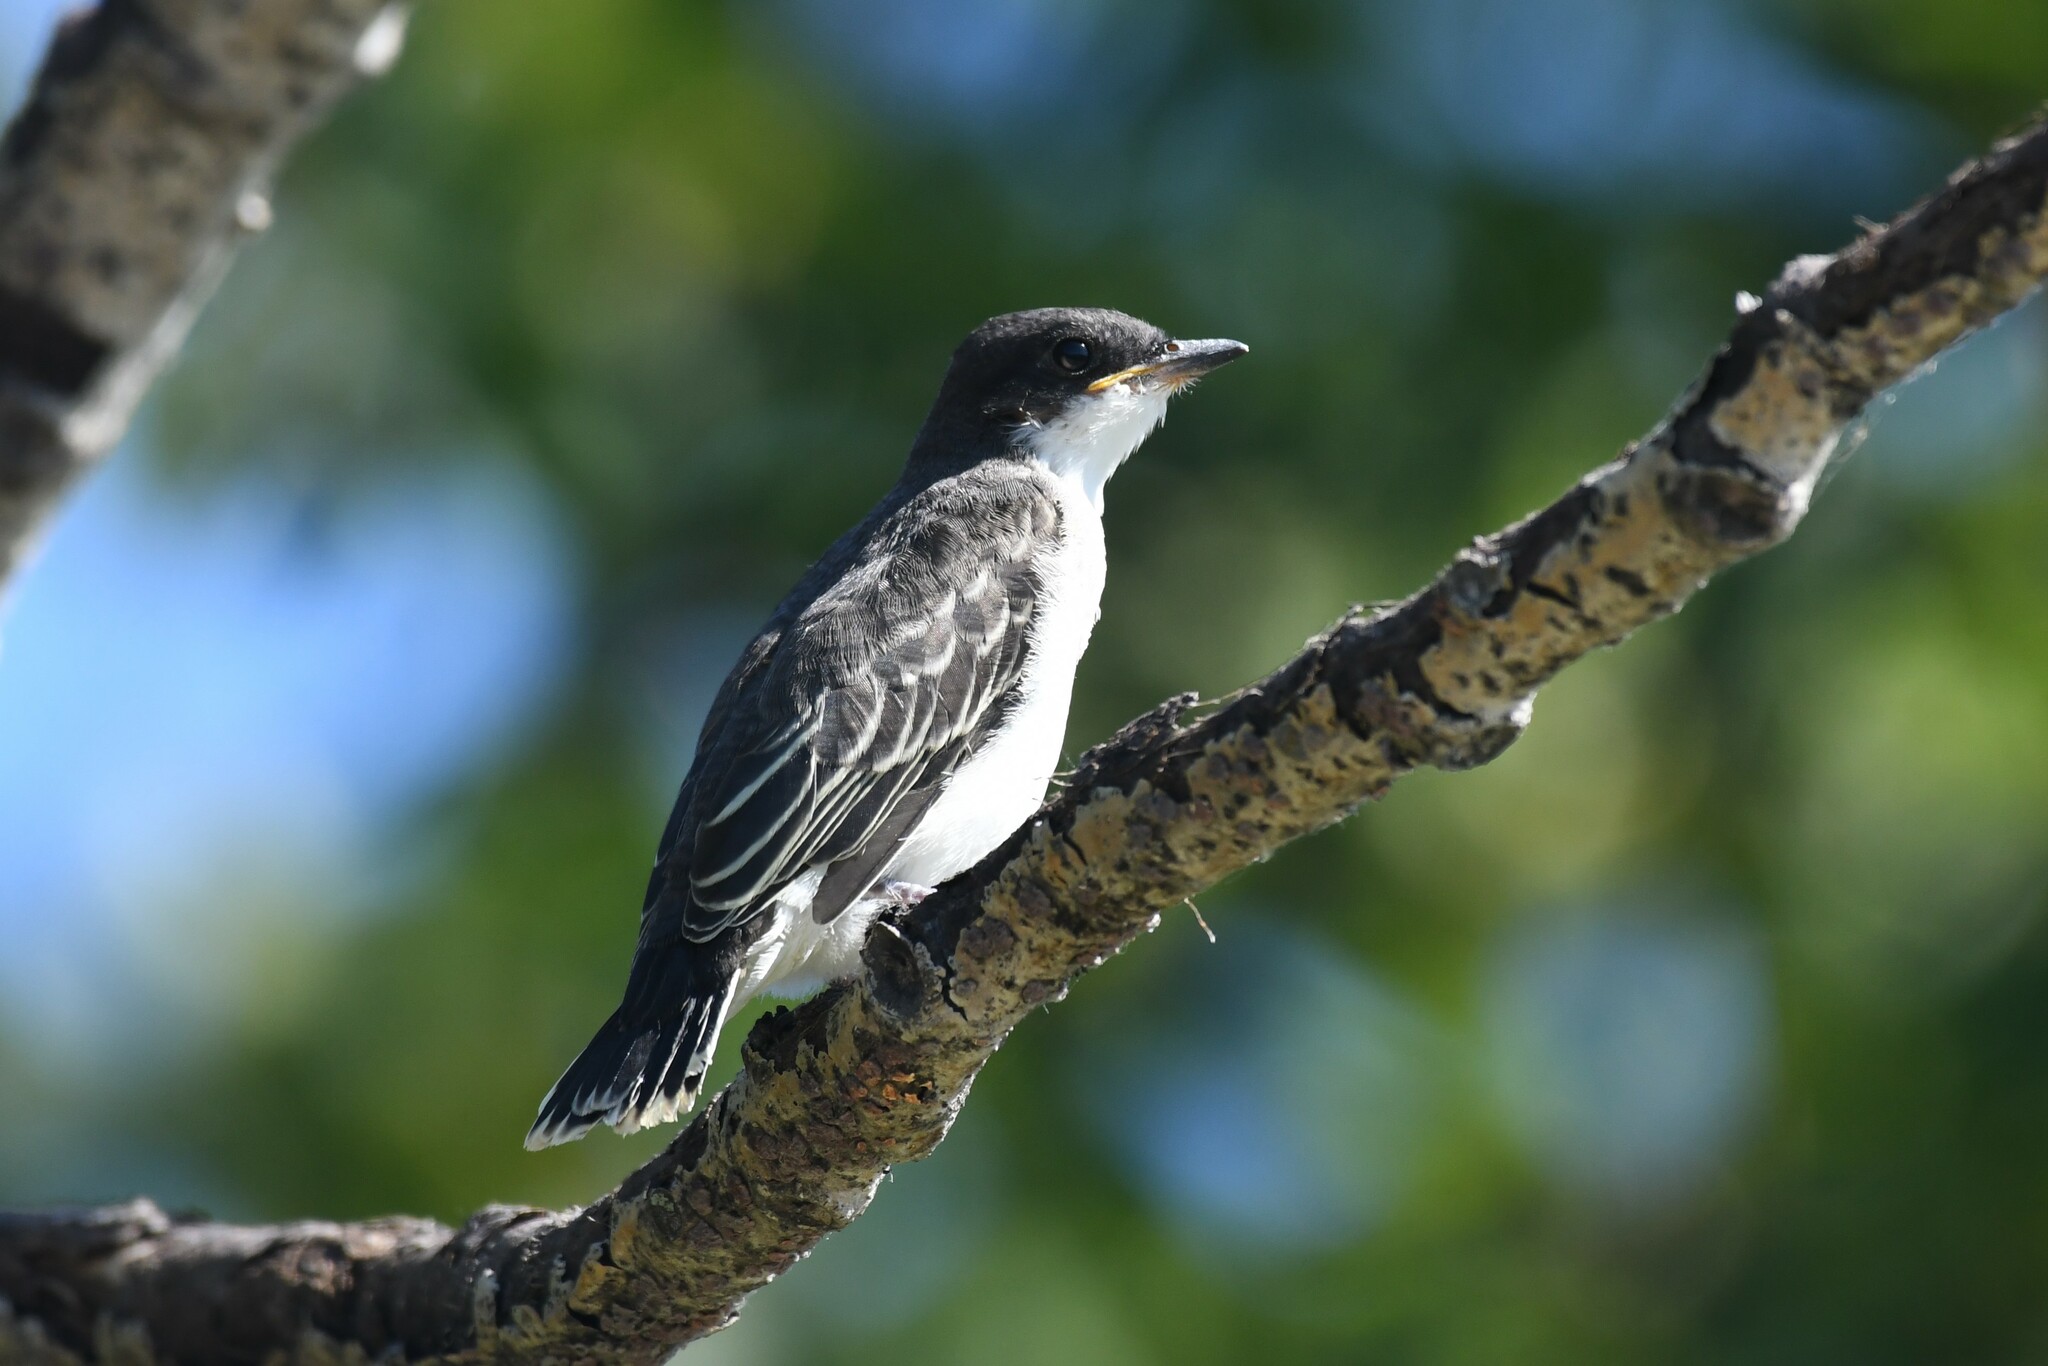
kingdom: Animalia
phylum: Chordata
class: Aves
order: Passeriformes
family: Tyrannidae
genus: Tyrannus
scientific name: Tyrannus tyrannus
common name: Eastern kingbird
